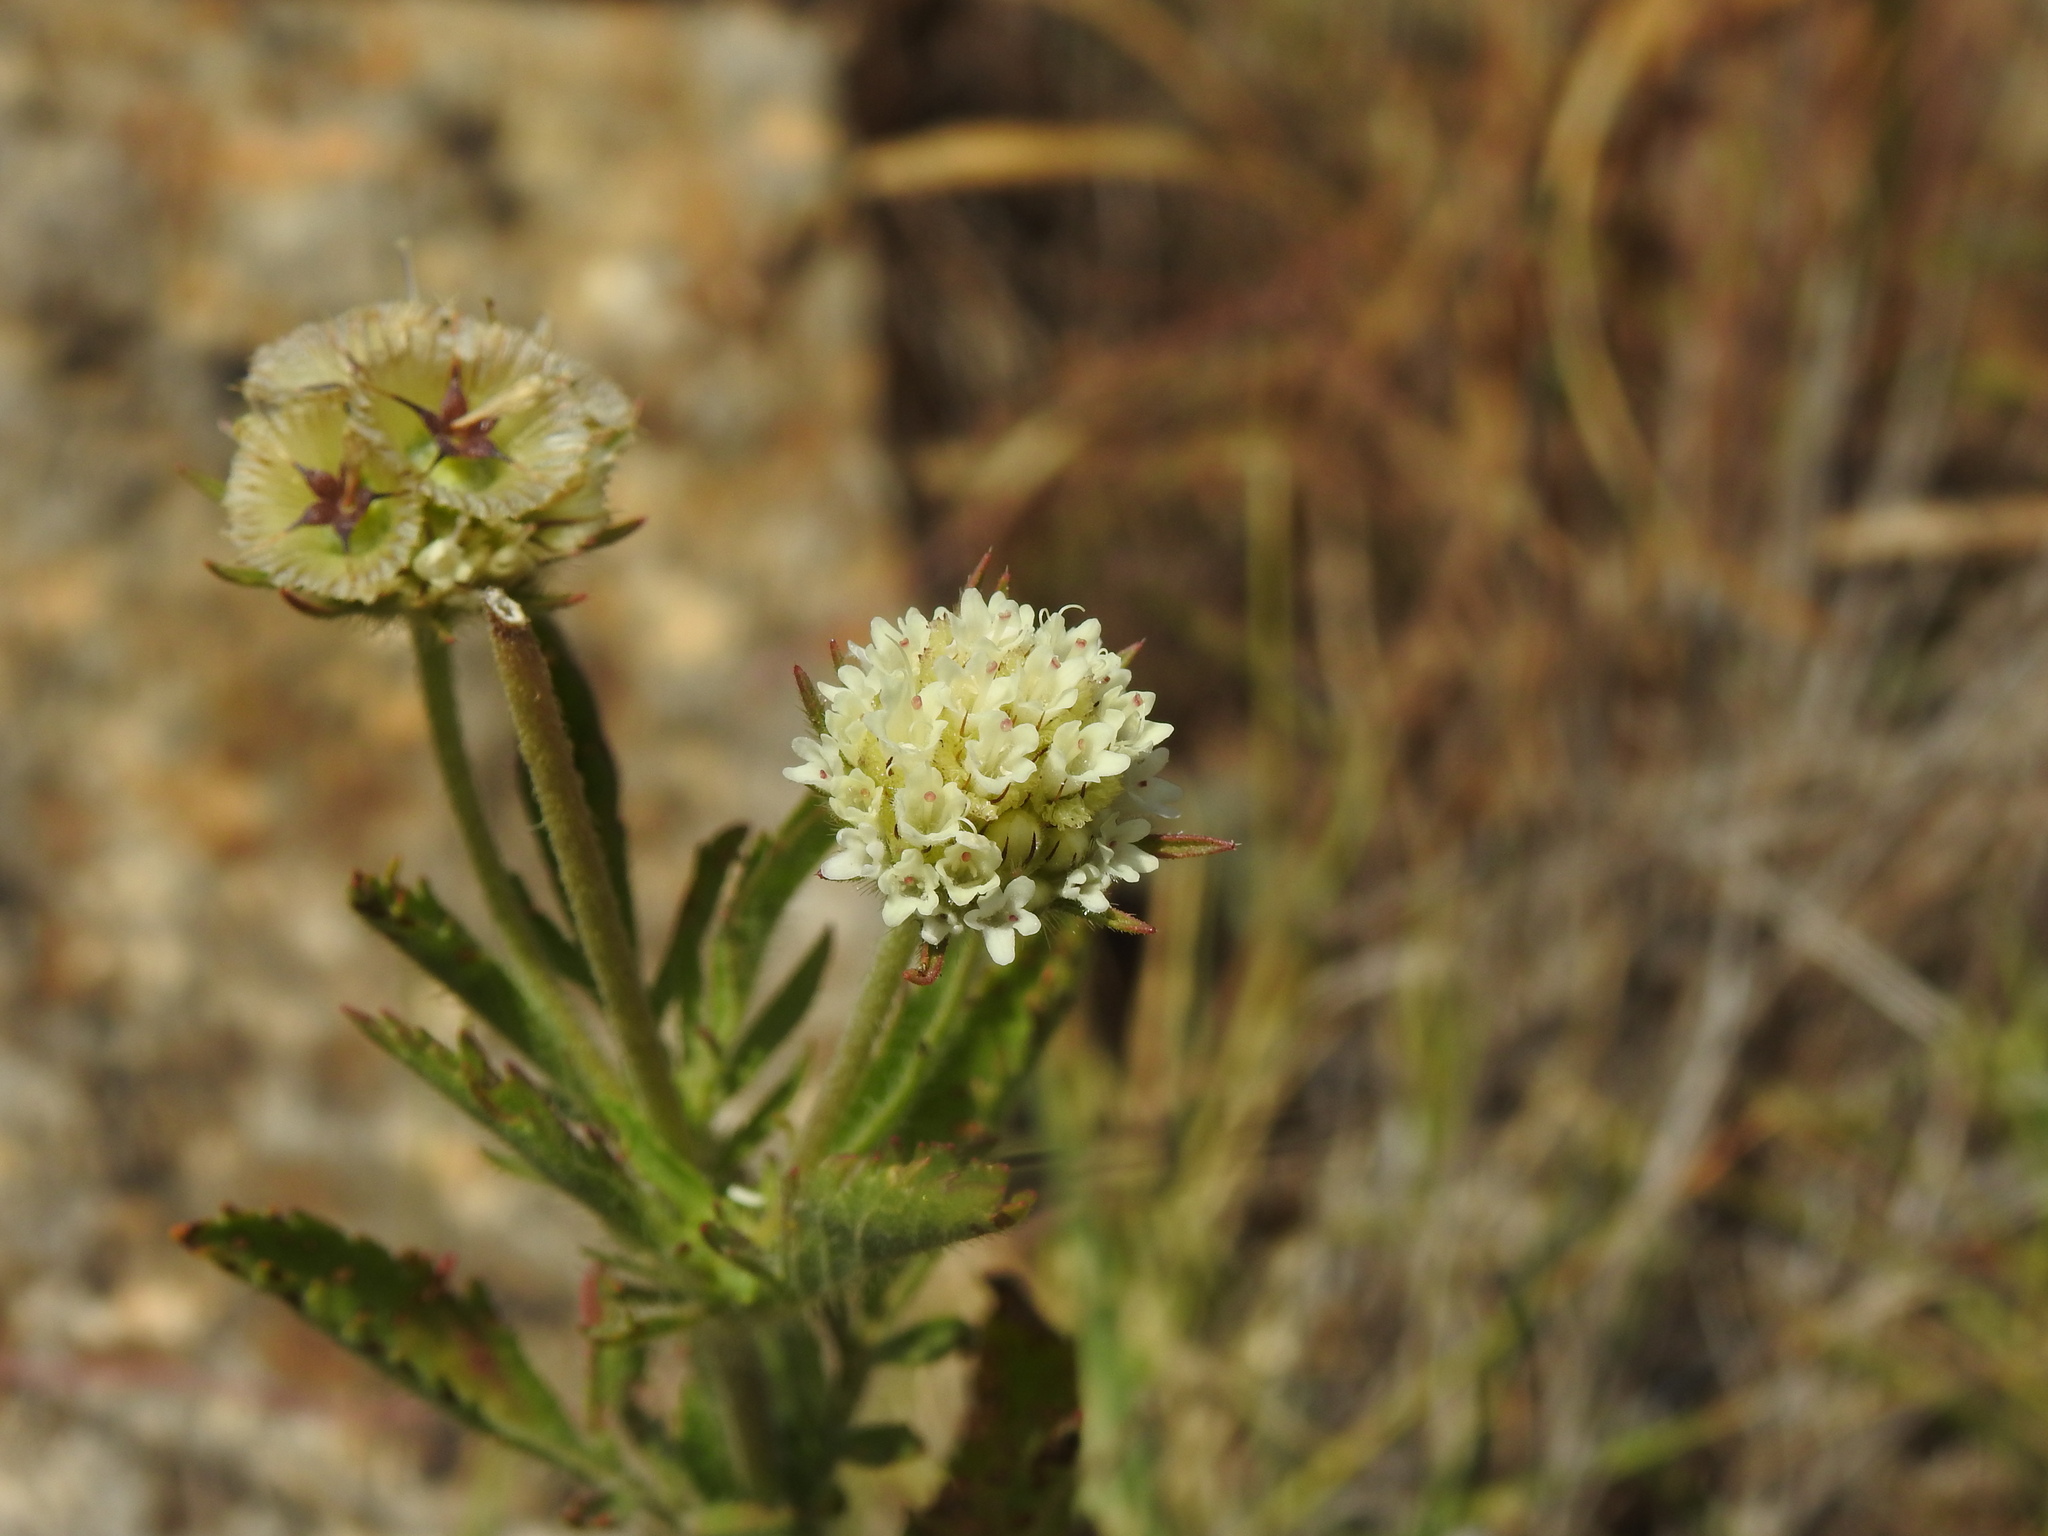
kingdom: Plantae
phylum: Tracheophyta
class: Magnoliopsida
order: Dipsacales
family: Caprifoliaceae
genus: Lomelosia
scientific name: Lomelosia simplex
